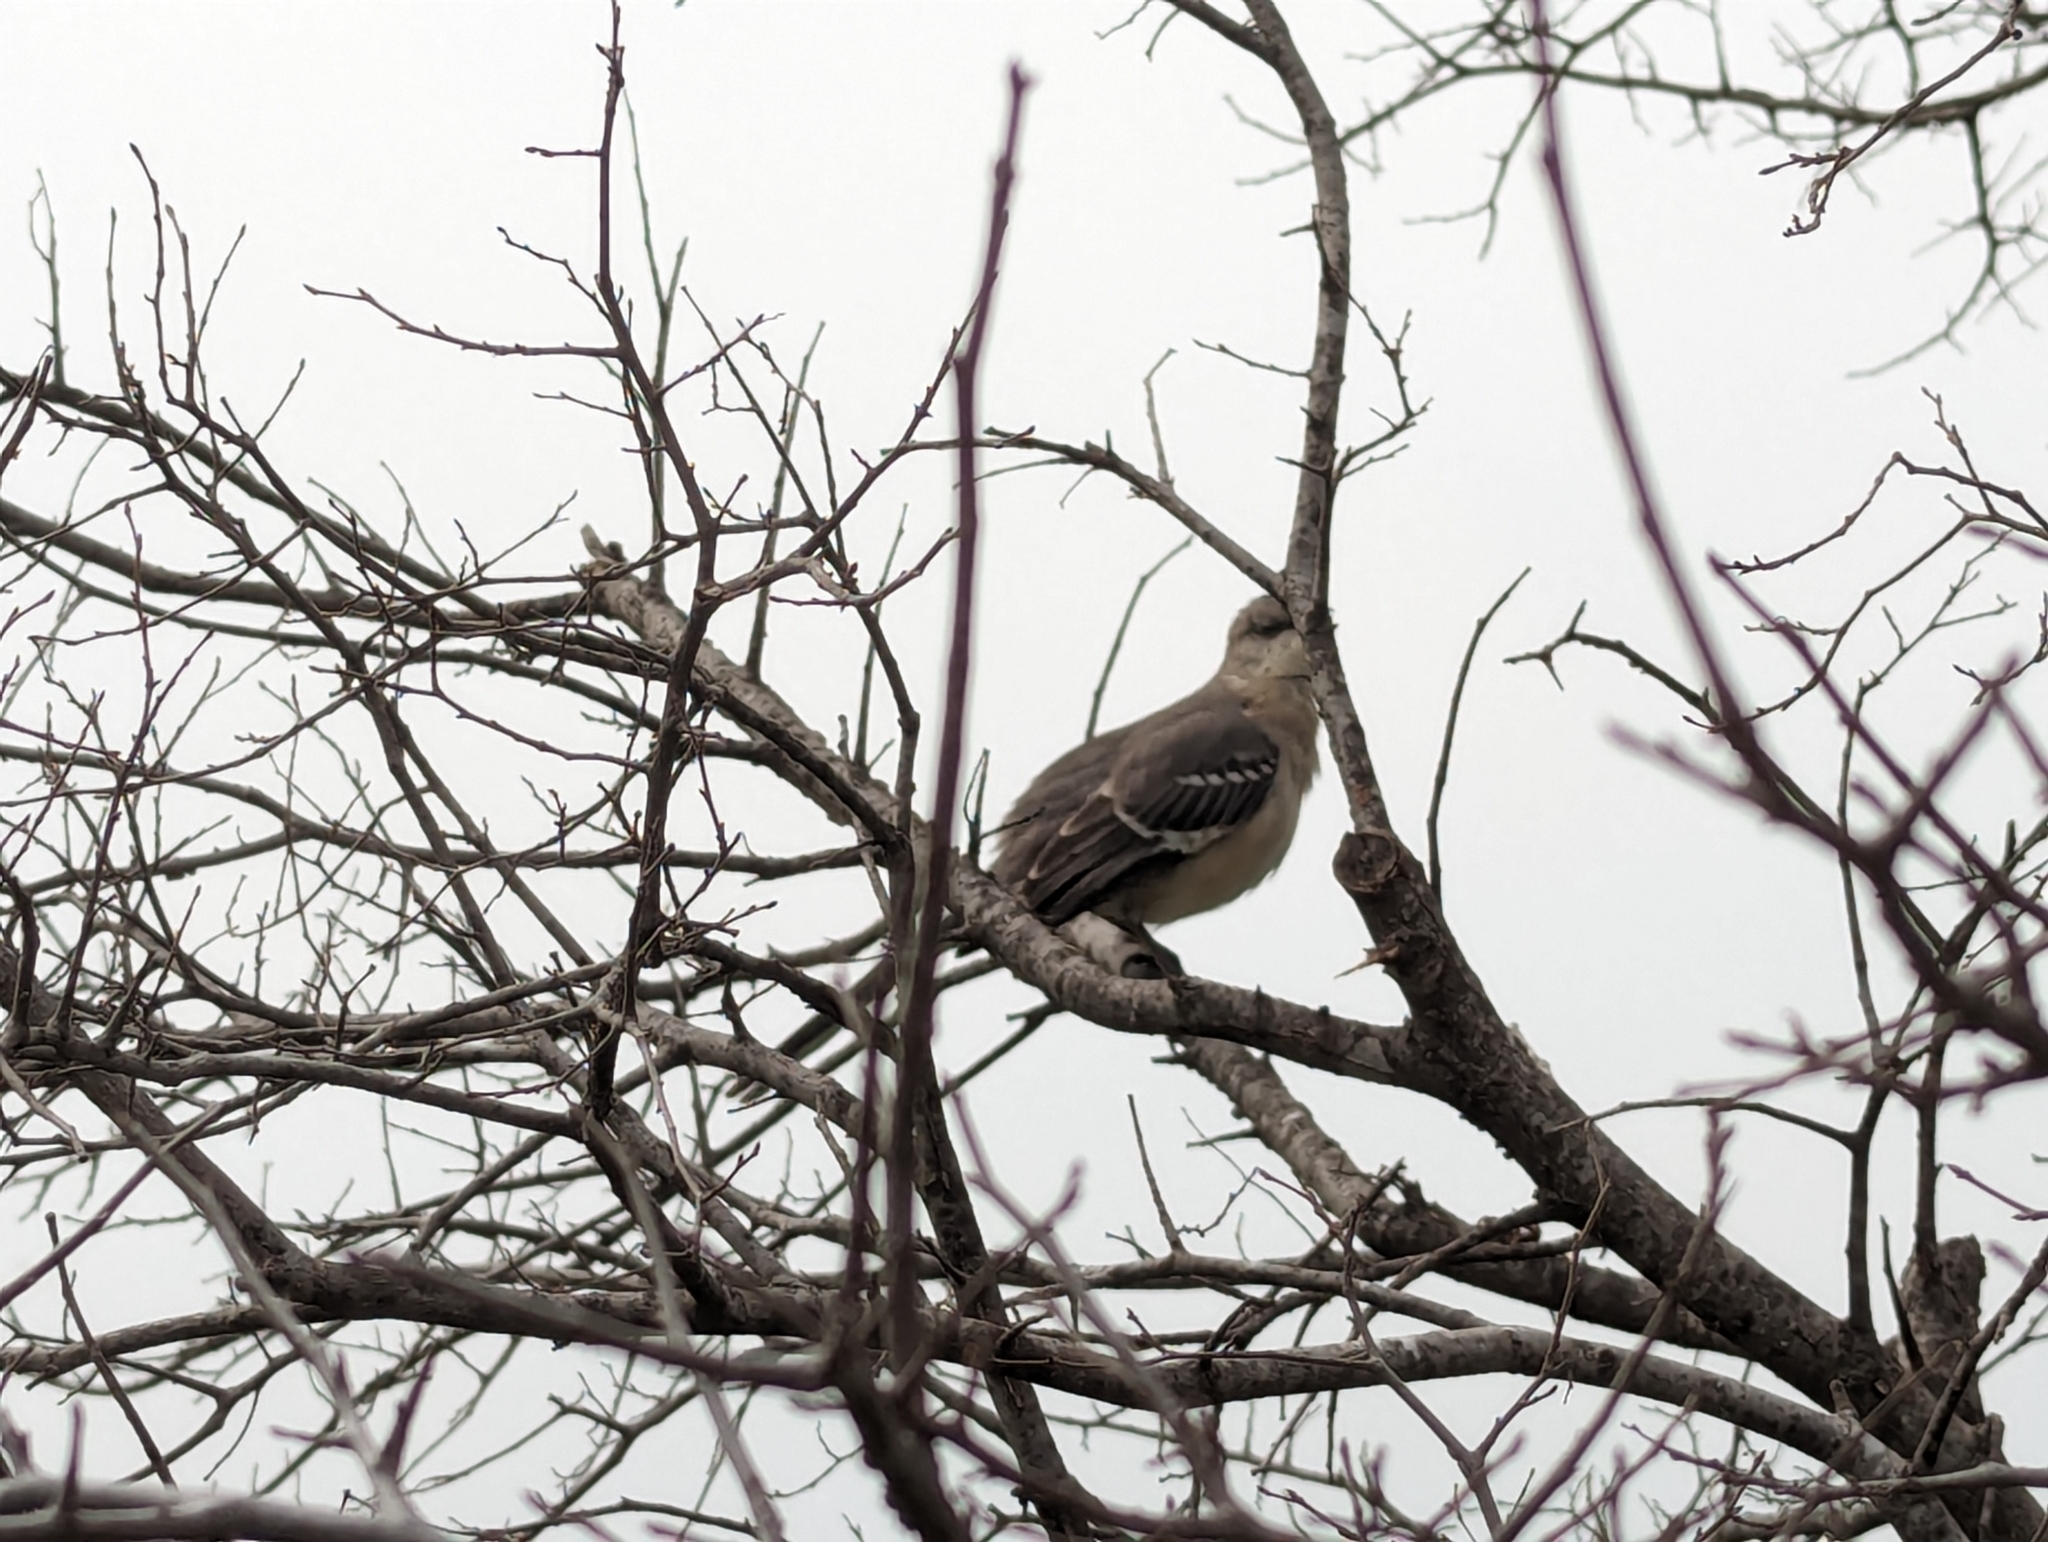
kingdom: Animalia
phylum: Chordata
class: Aves
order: Passeriformes
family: Mimidae
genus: Mimus
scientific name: Mimus polyglottos
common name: Northern mockingbird
